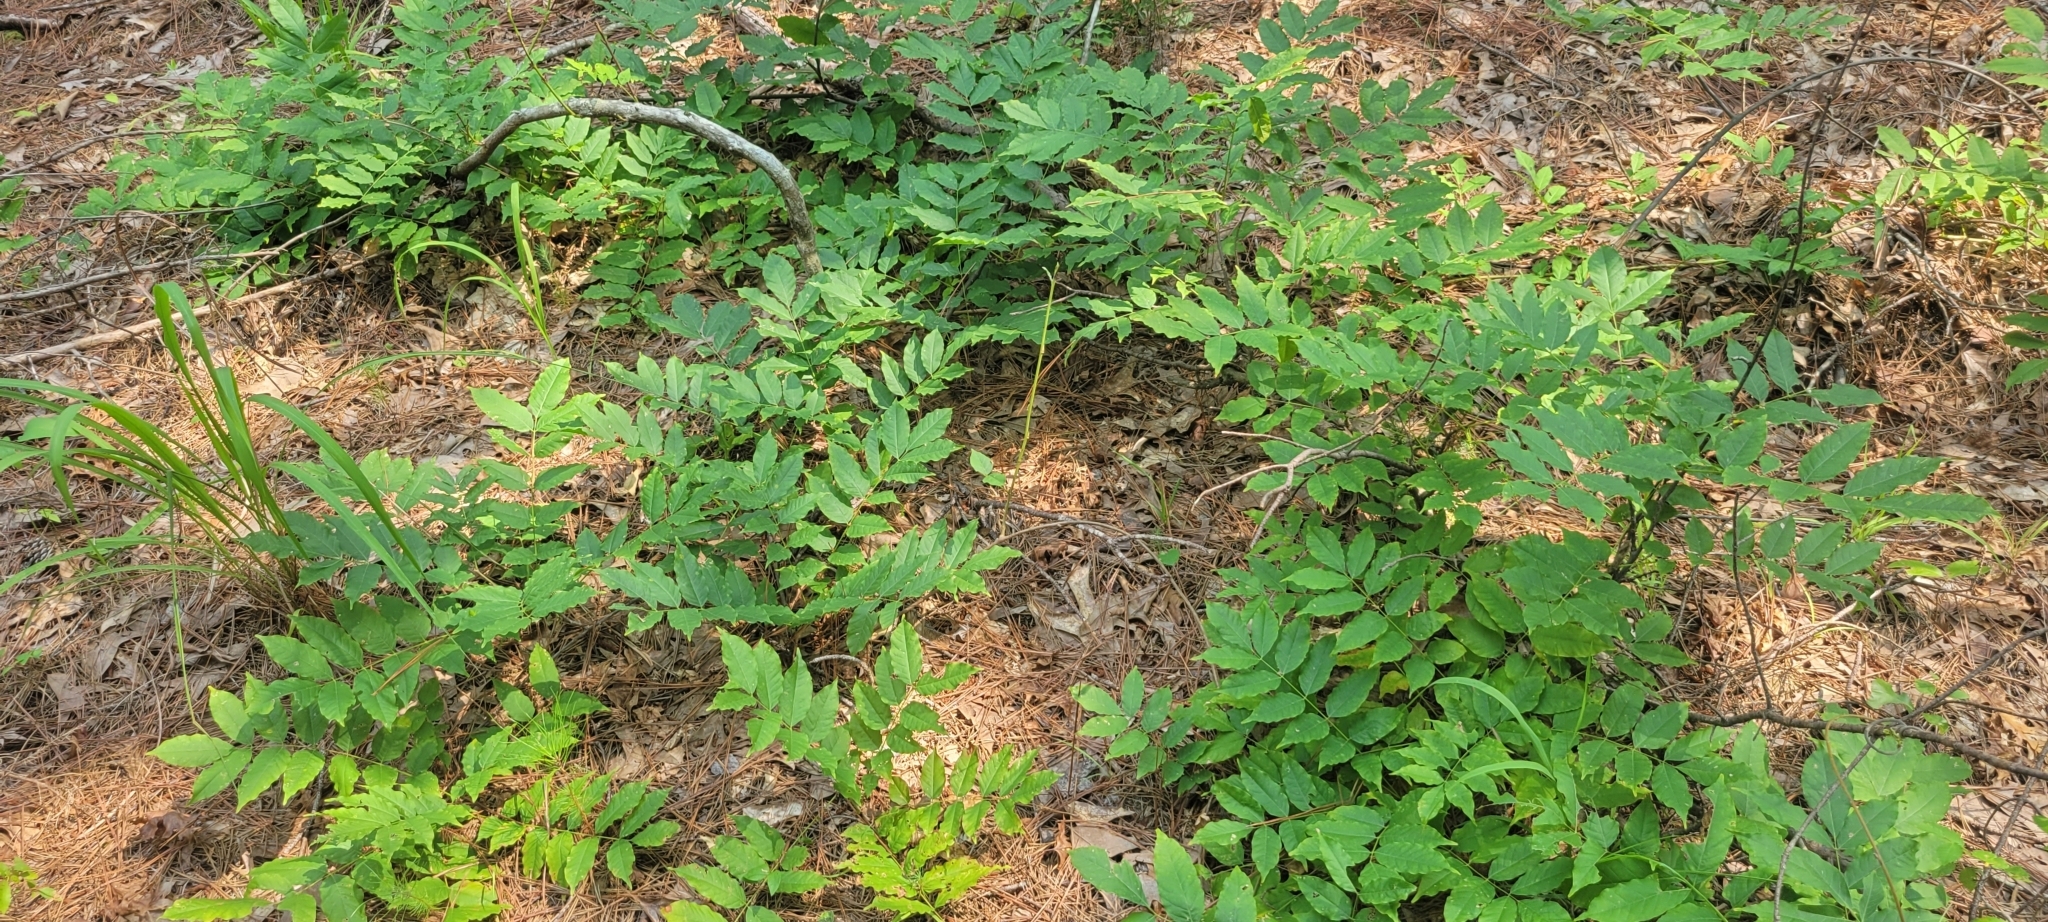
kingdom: Plantae
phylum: Tracheophyta
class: Magnoliopsida
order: Fabales
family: Fabaceae
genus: Wisteria
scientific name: Wisteria sinensis
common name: Chinese wisteria
